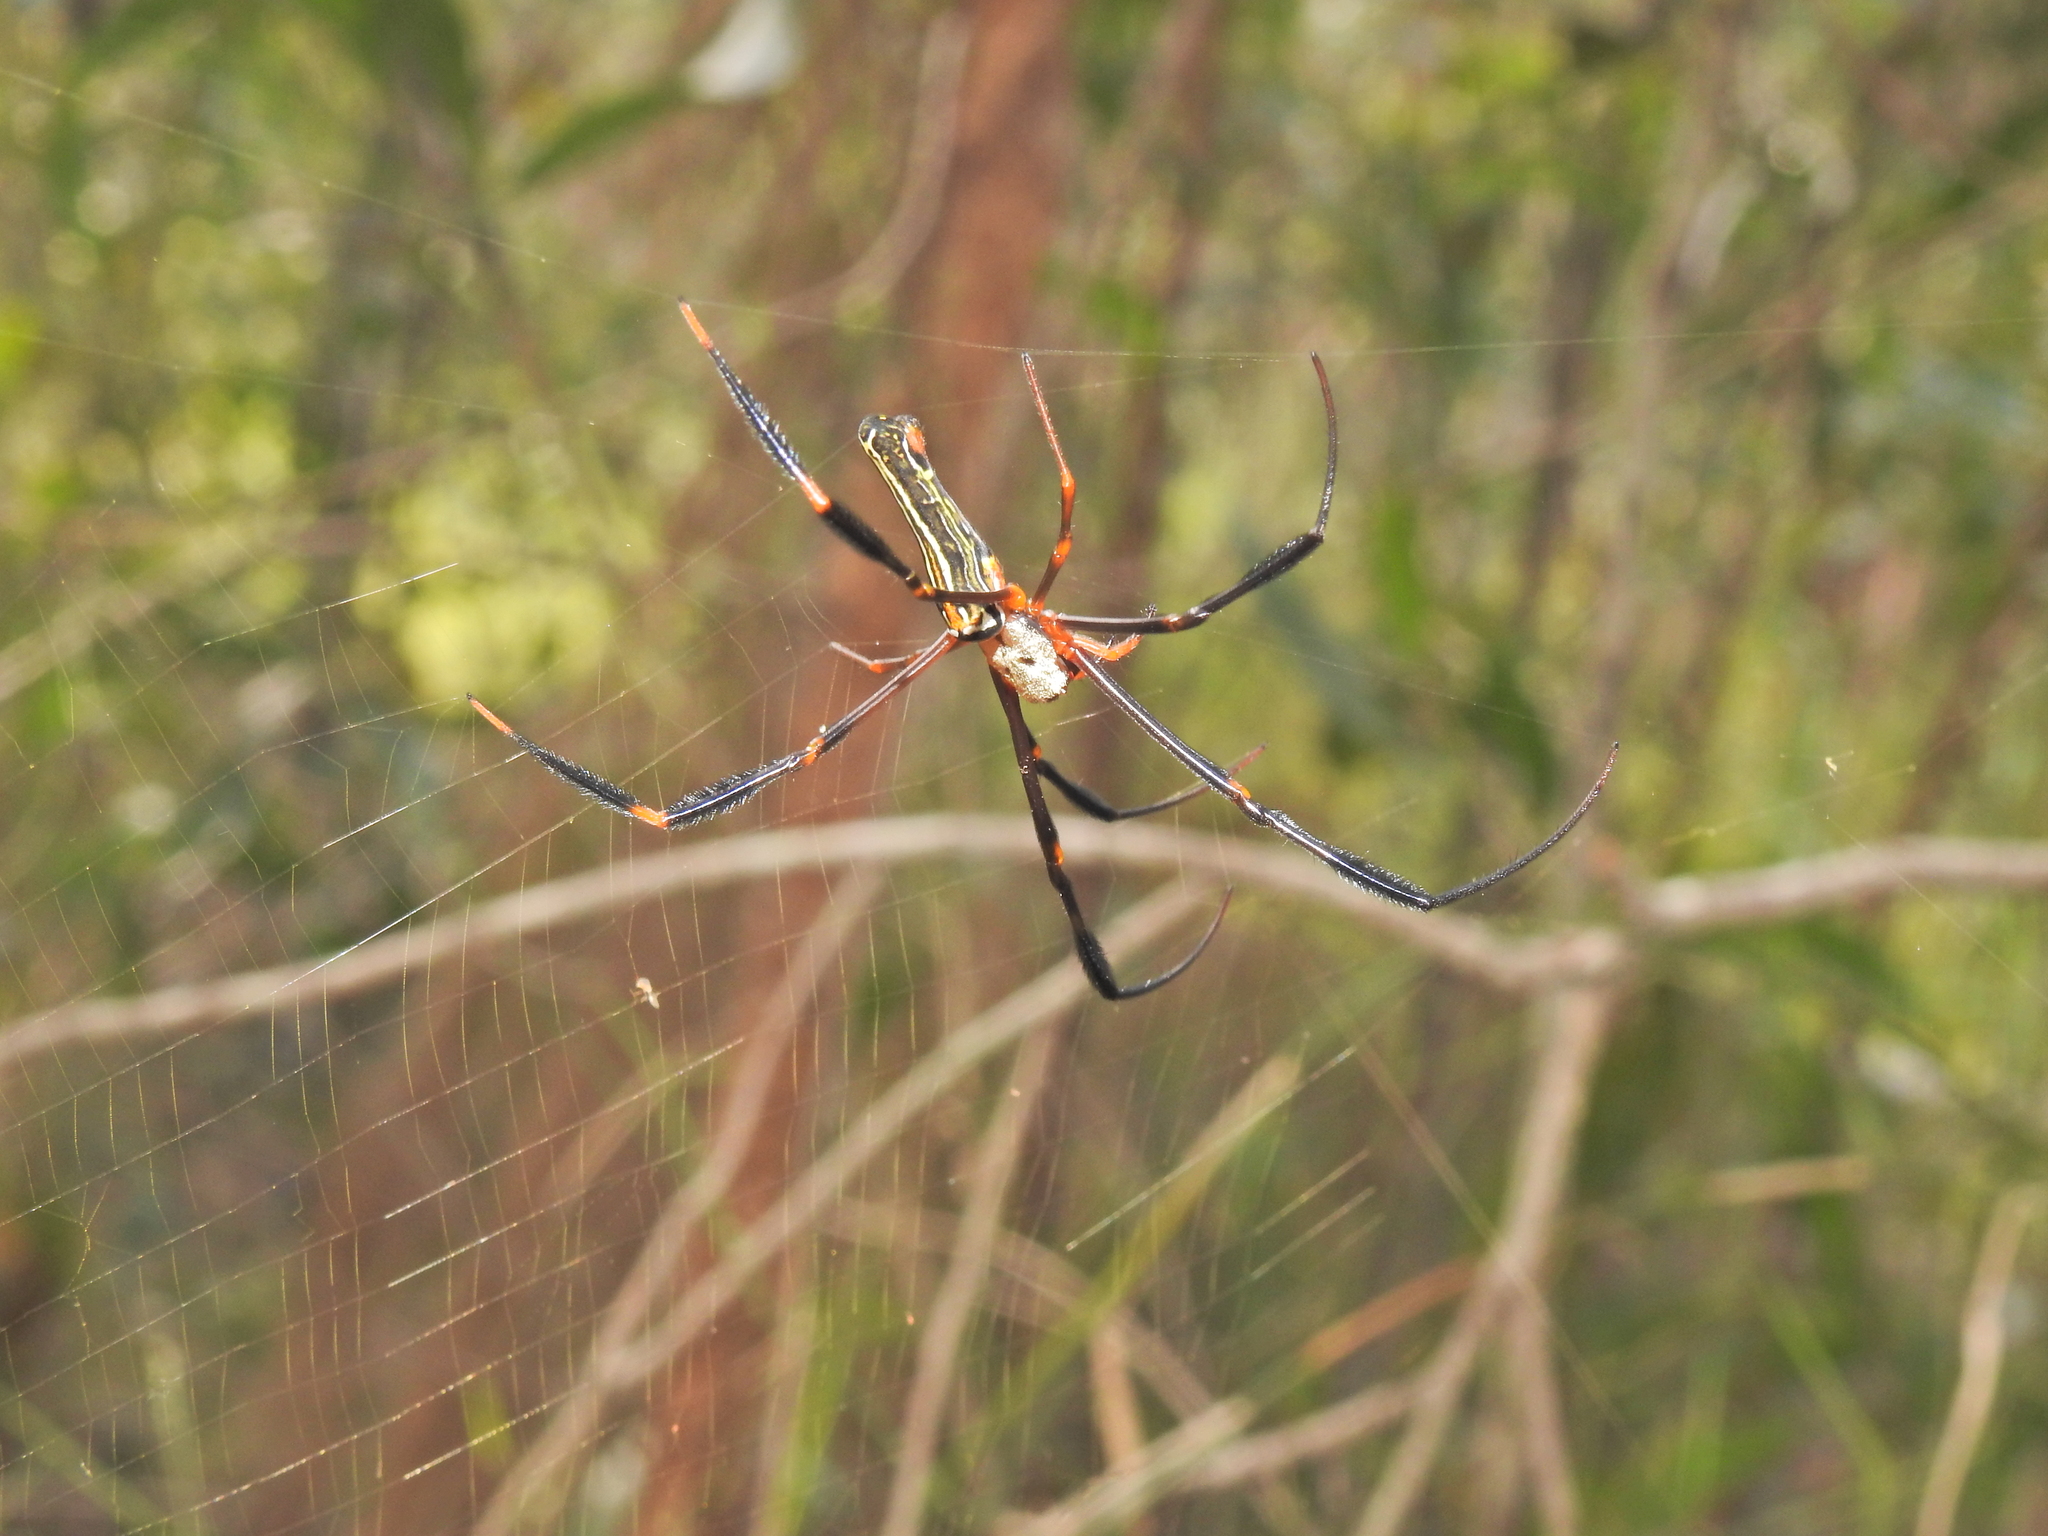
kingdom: Animalia
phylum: Arthropoda
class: Arachnida
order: Araneae
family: Araneidae
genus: Nephila
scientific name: Nephila pilipes
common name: Giant golden orb weaver
